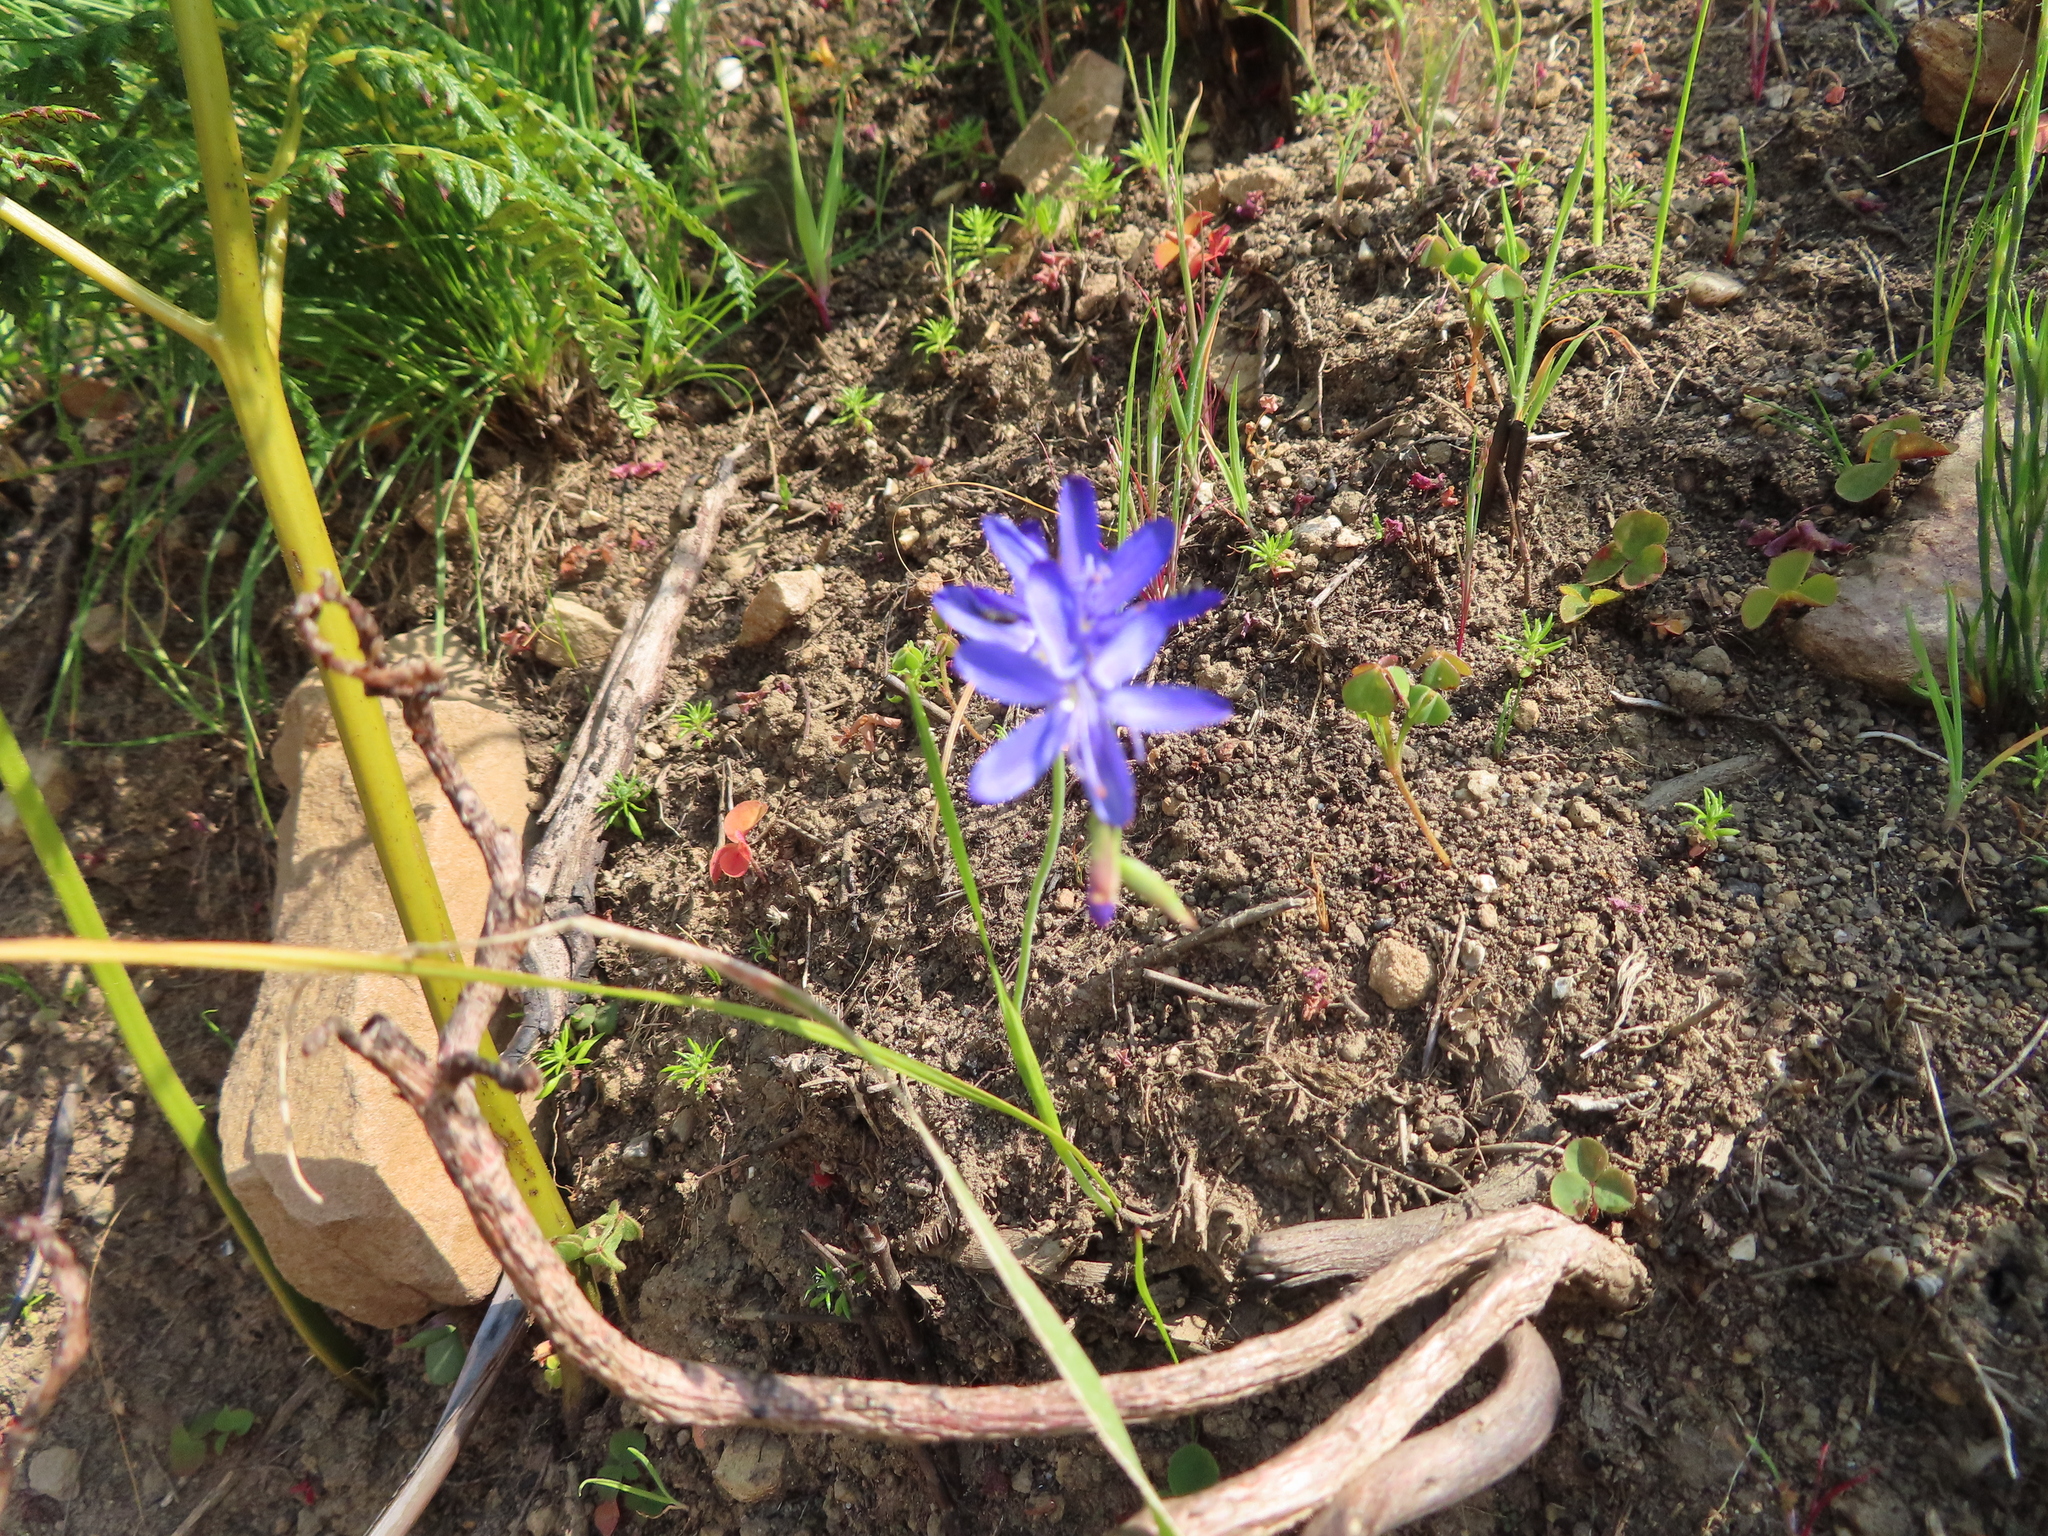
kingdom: Plantae
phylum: Tracheophyta
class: Liliopsida
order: Asparagales
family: Iridaceae
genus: Geissorhiza
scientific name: Geissorhiza aspera
